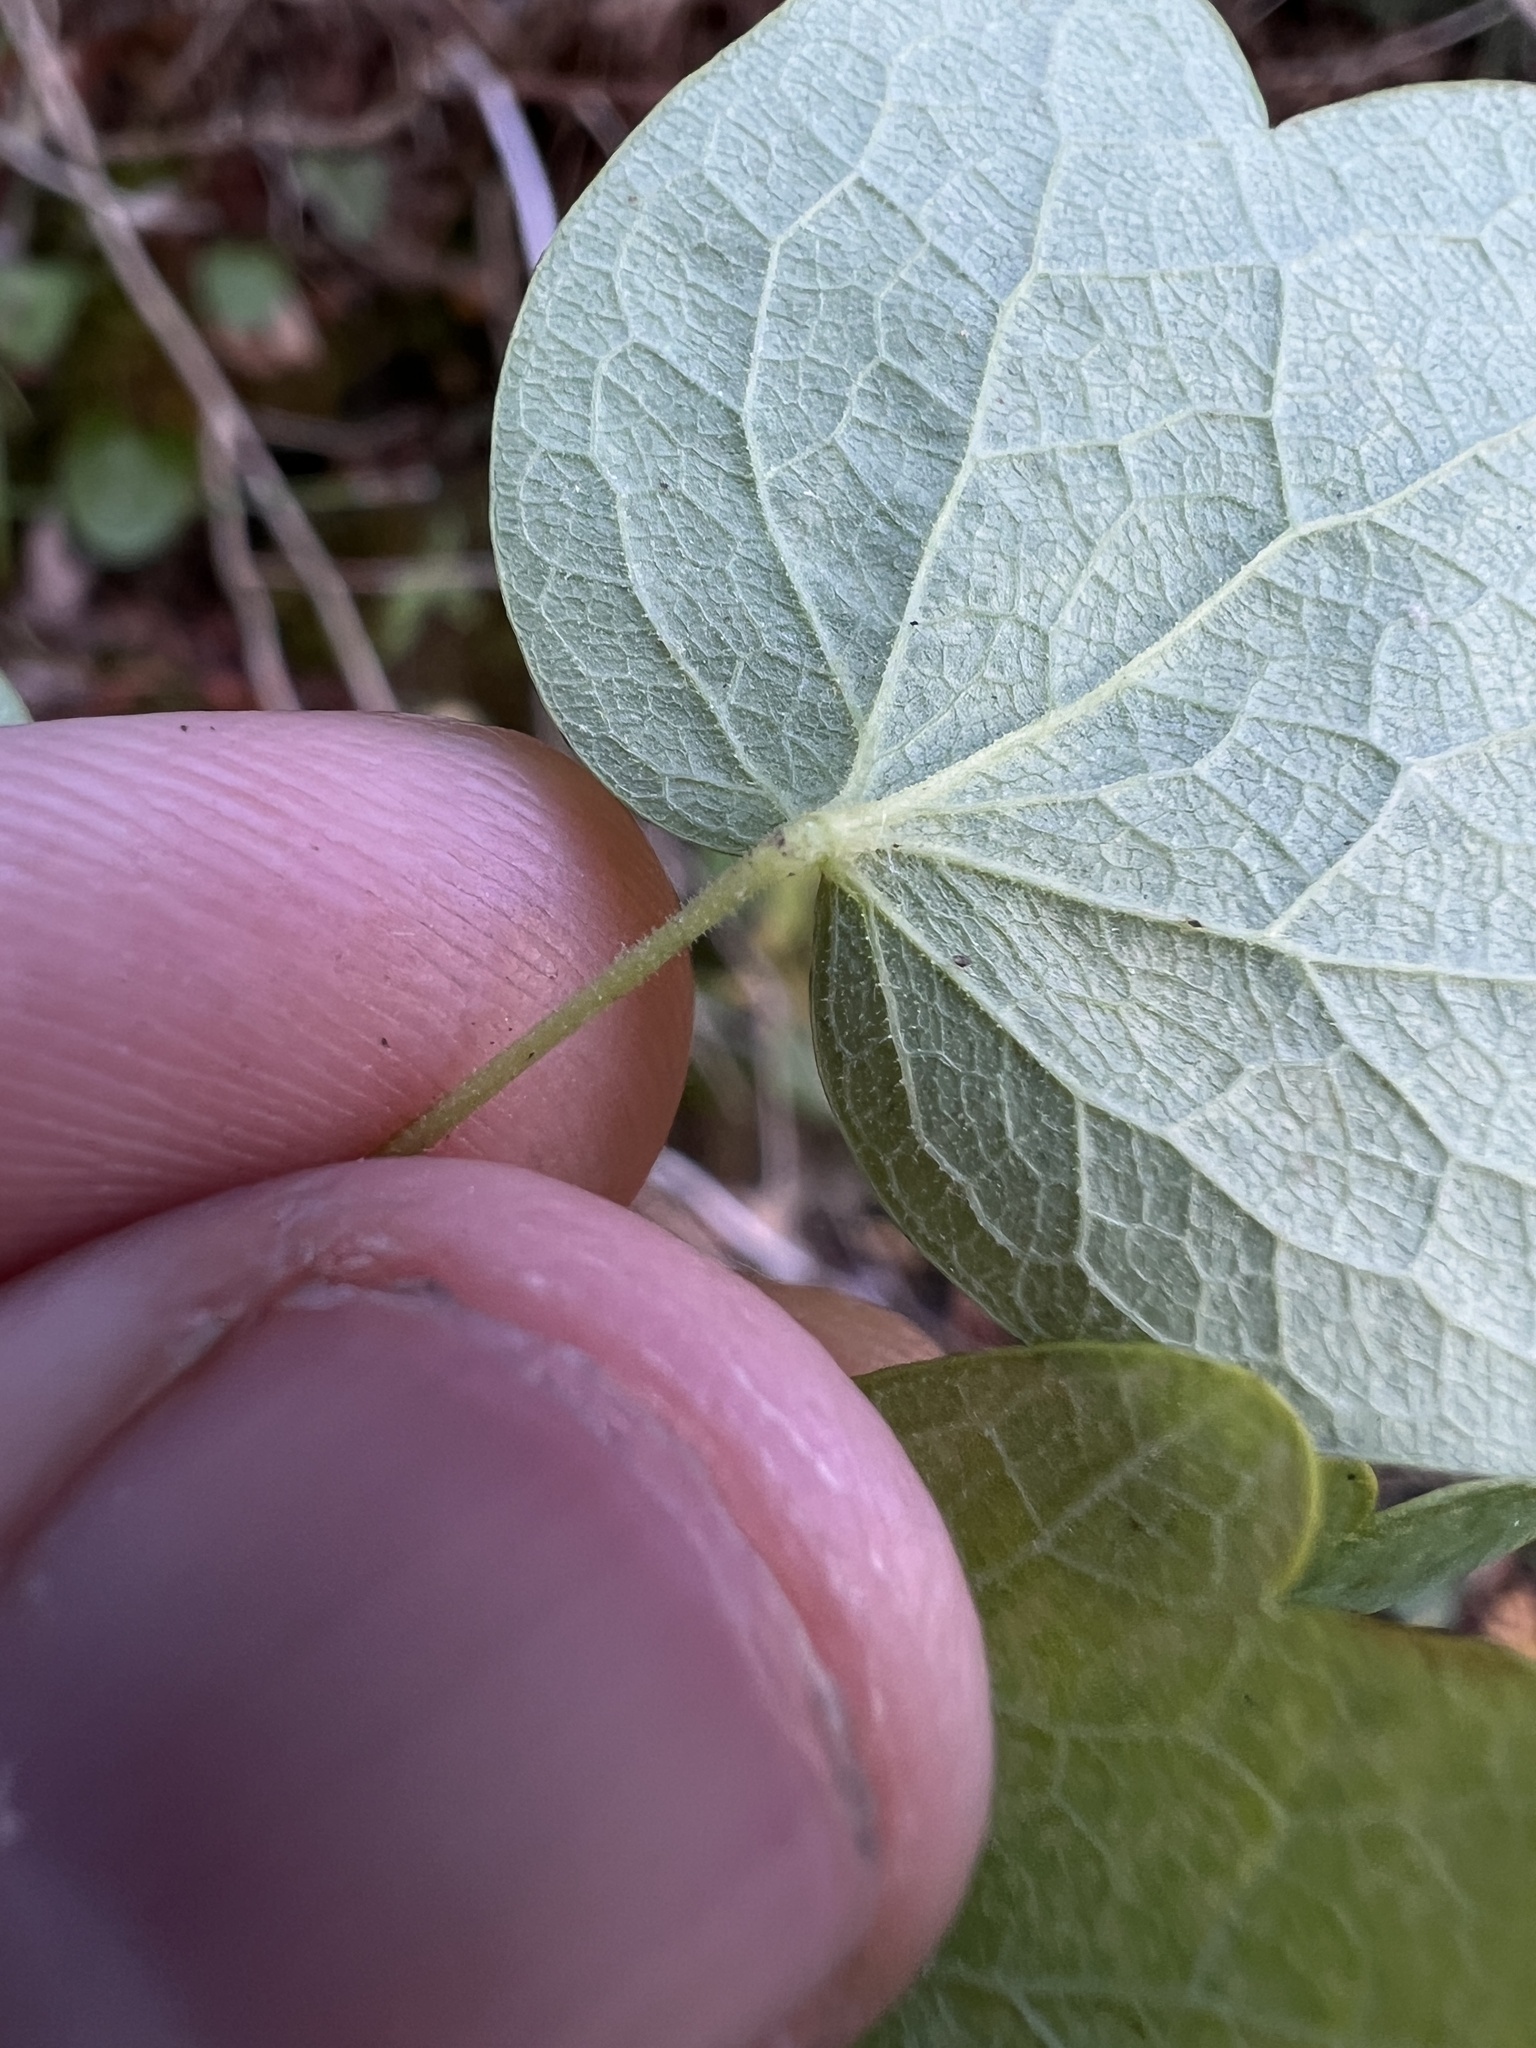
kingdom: Plantae
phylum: Tracheophyta
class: Magnoliopsida
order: Ranunculales
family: Ranunculaceae
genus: Thalictrum
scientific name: Thalictrum revolutum
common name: Waxy meadow-rue
